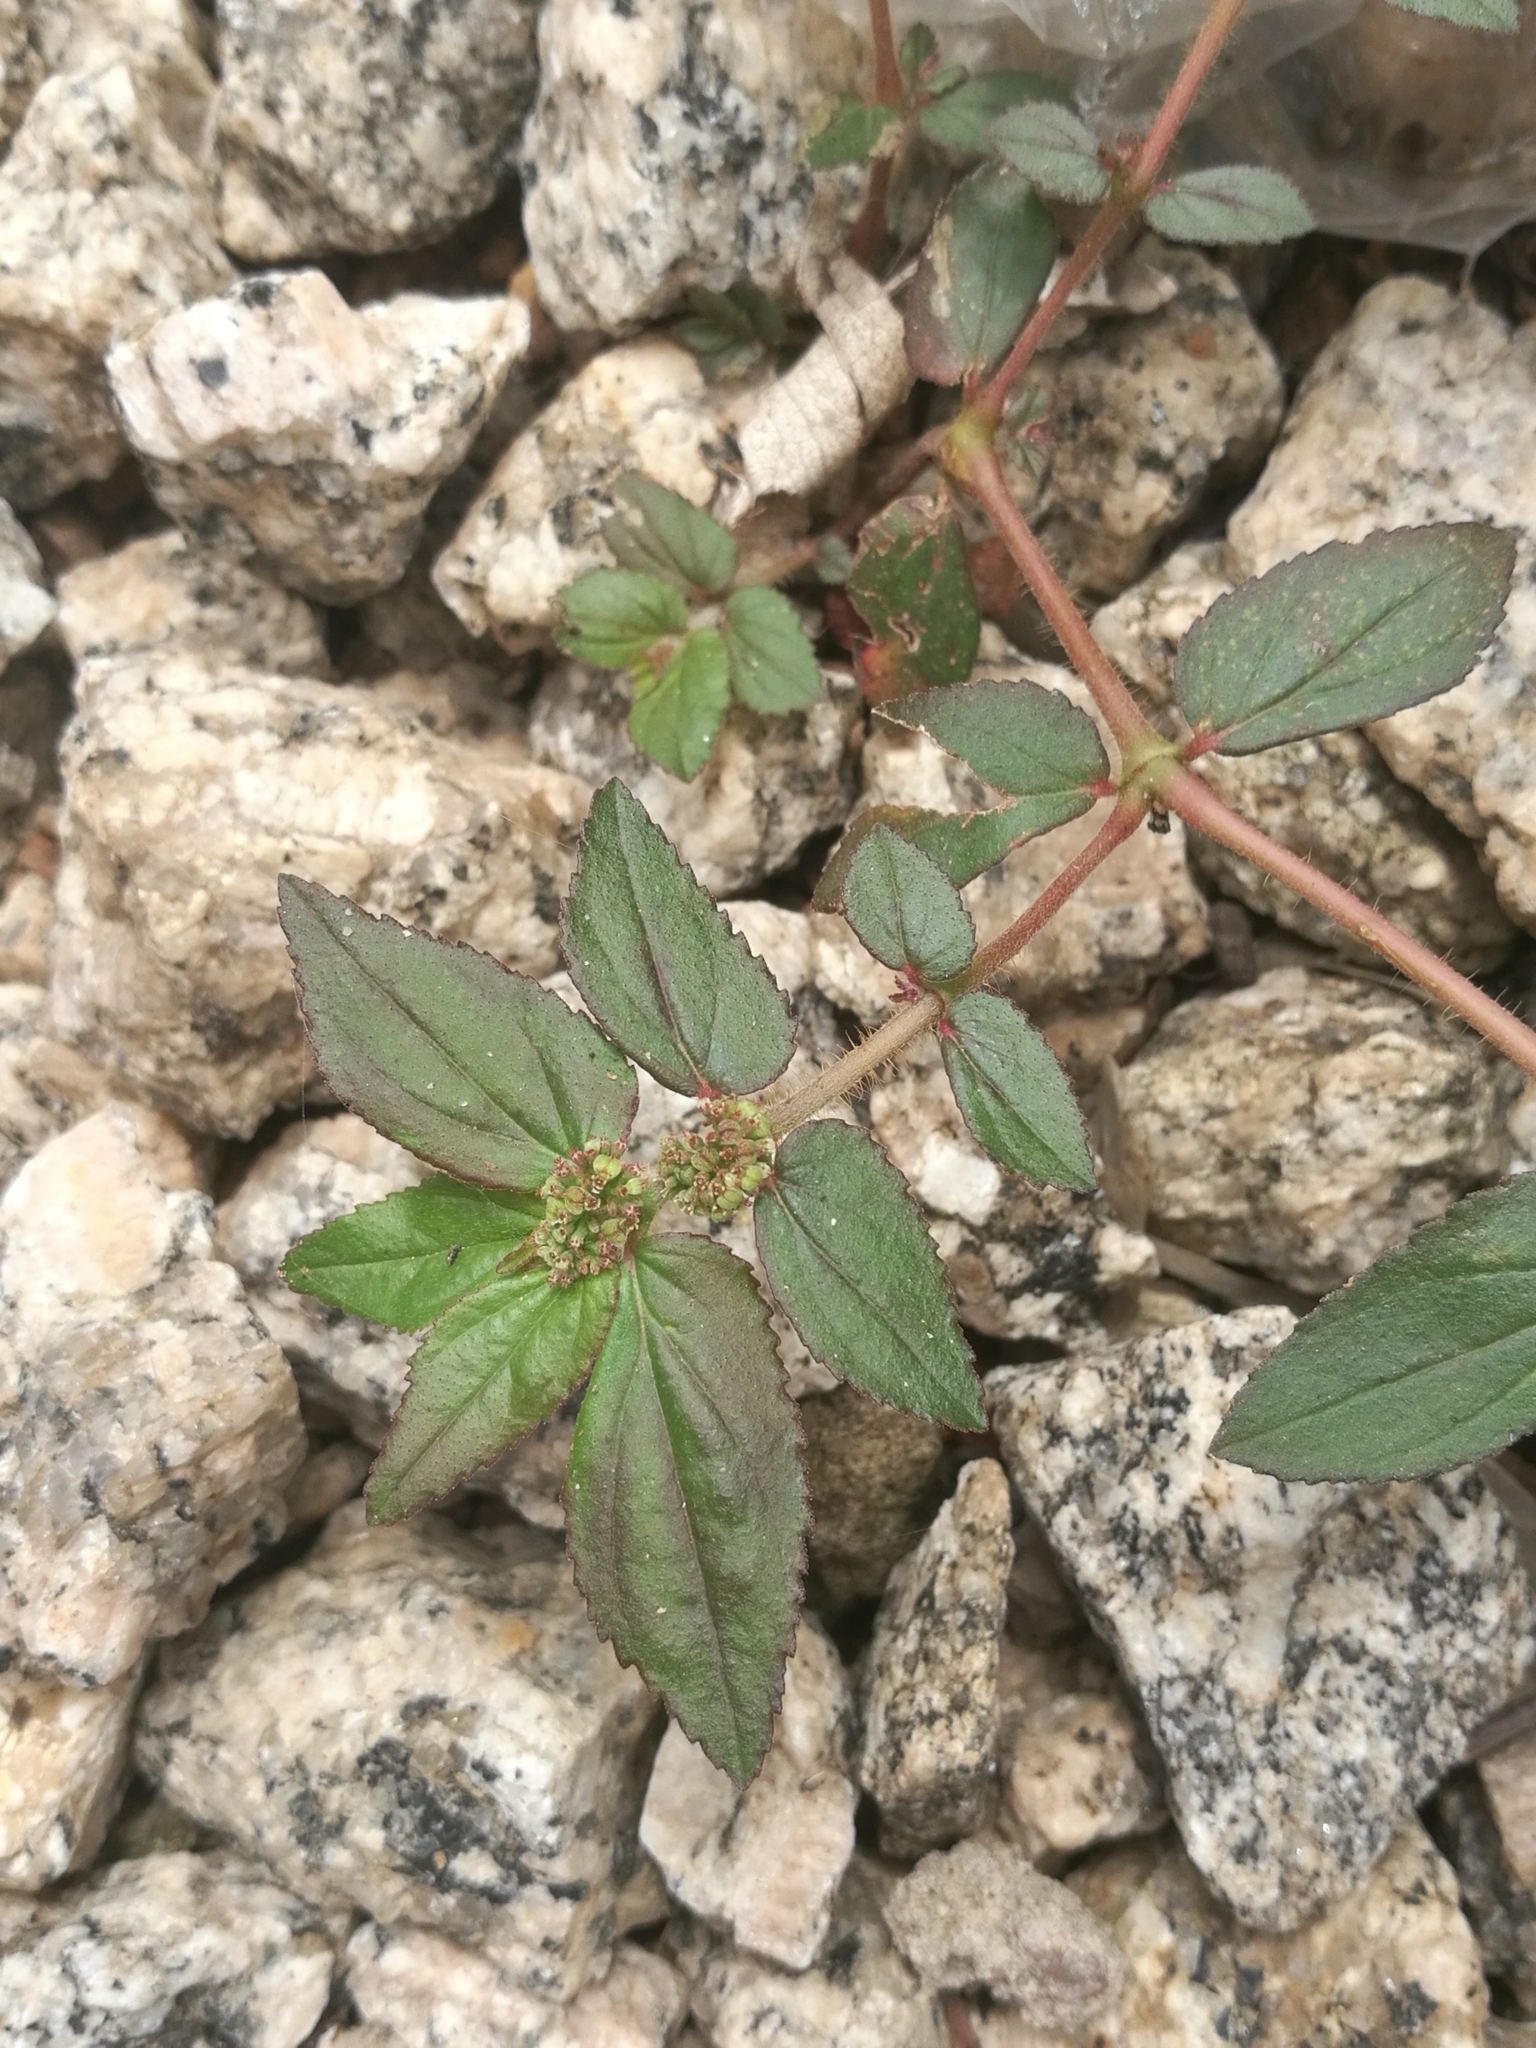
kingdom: Plantae
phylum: Tracheophyta
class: Magnoliopsida
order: Malpighiales
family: Euphorbiaceae
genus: Euphorbia
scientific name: Euphorbia hirta
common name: Pillpod sandmat
